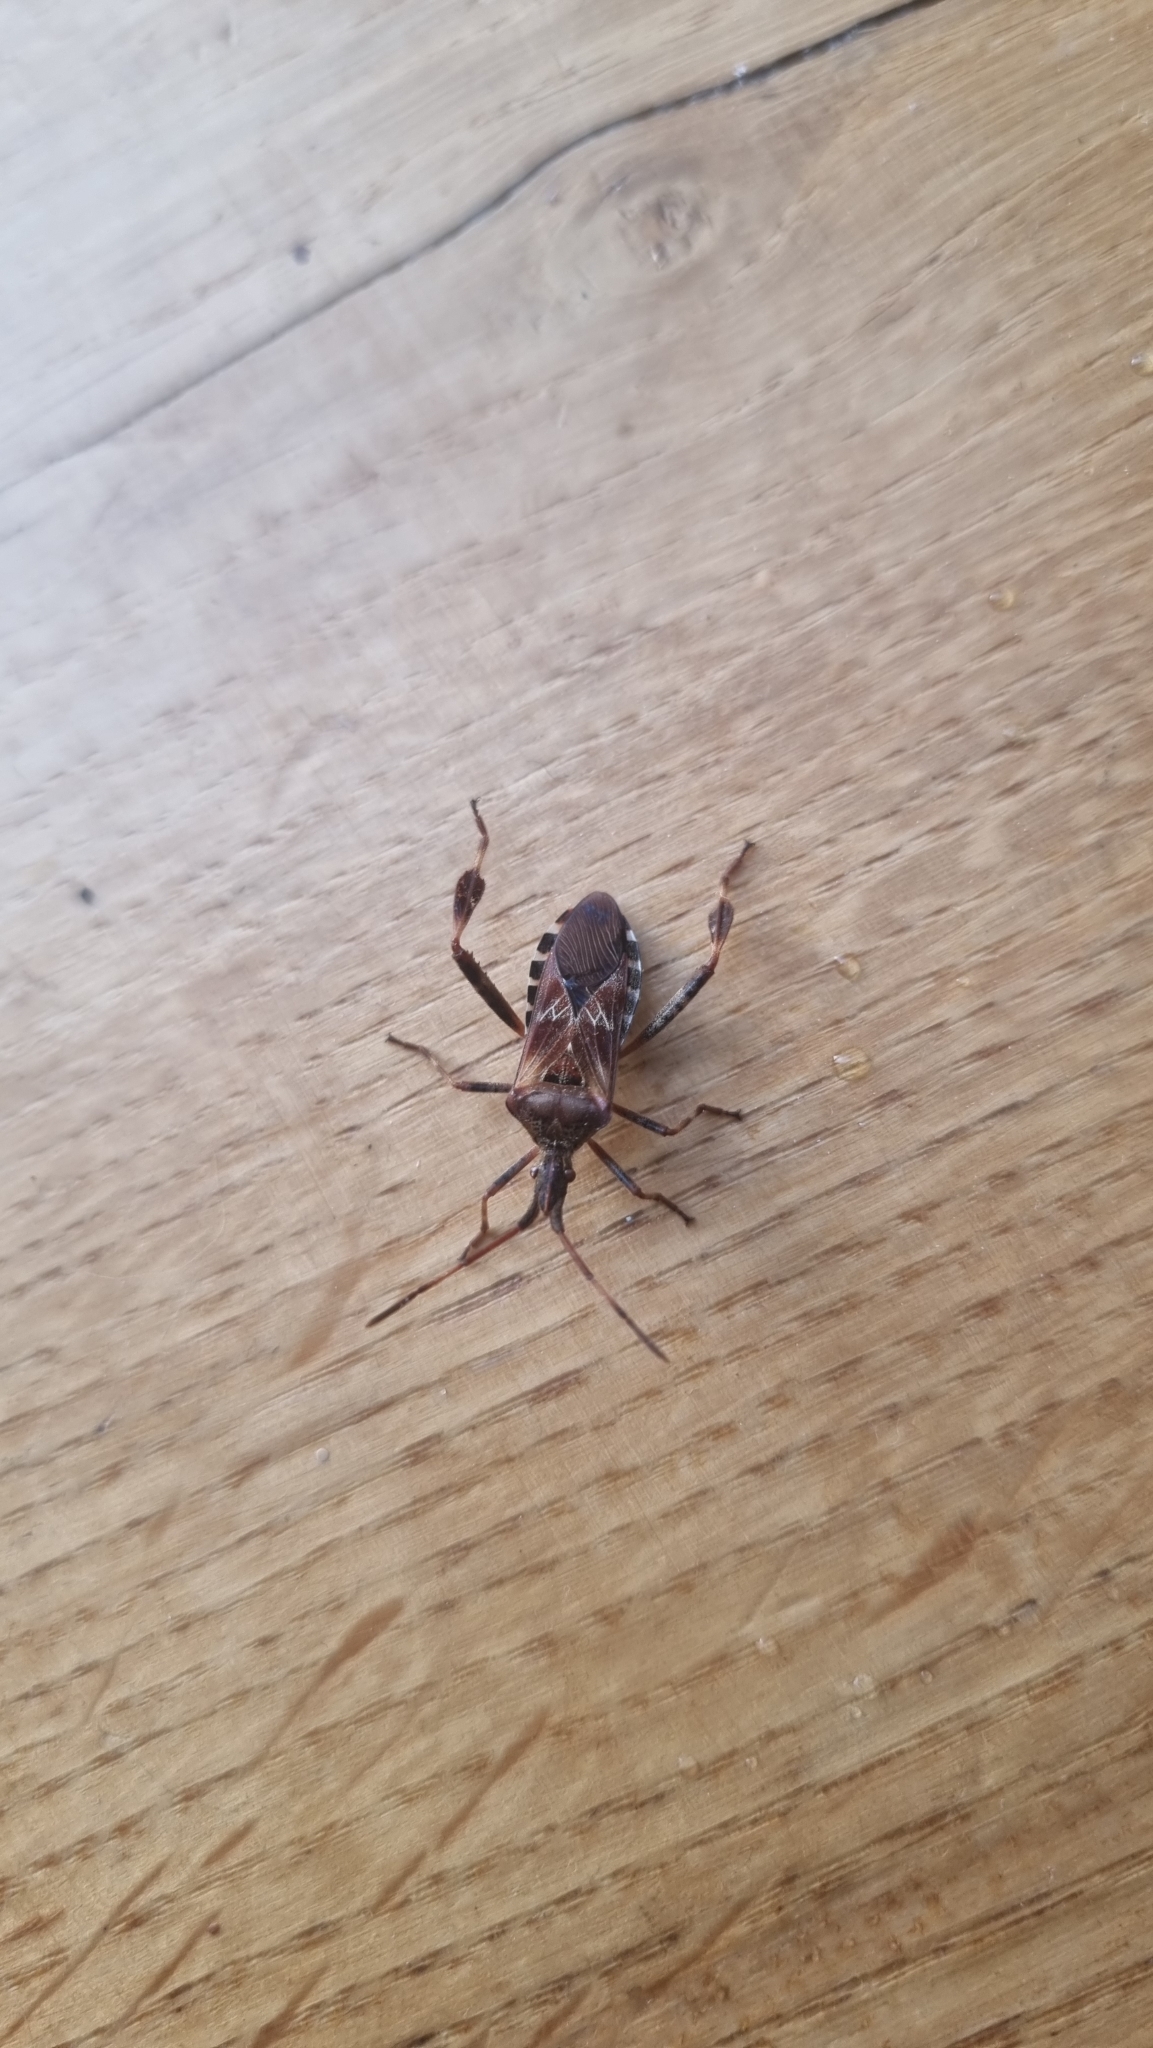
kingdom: Animalia
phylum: Arthropoda
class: Insecta
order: Hemiptera
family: Coreidae
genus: Leptoglossus
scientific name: Leptoglossus occidentalis
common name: Western conifer-seed bug
